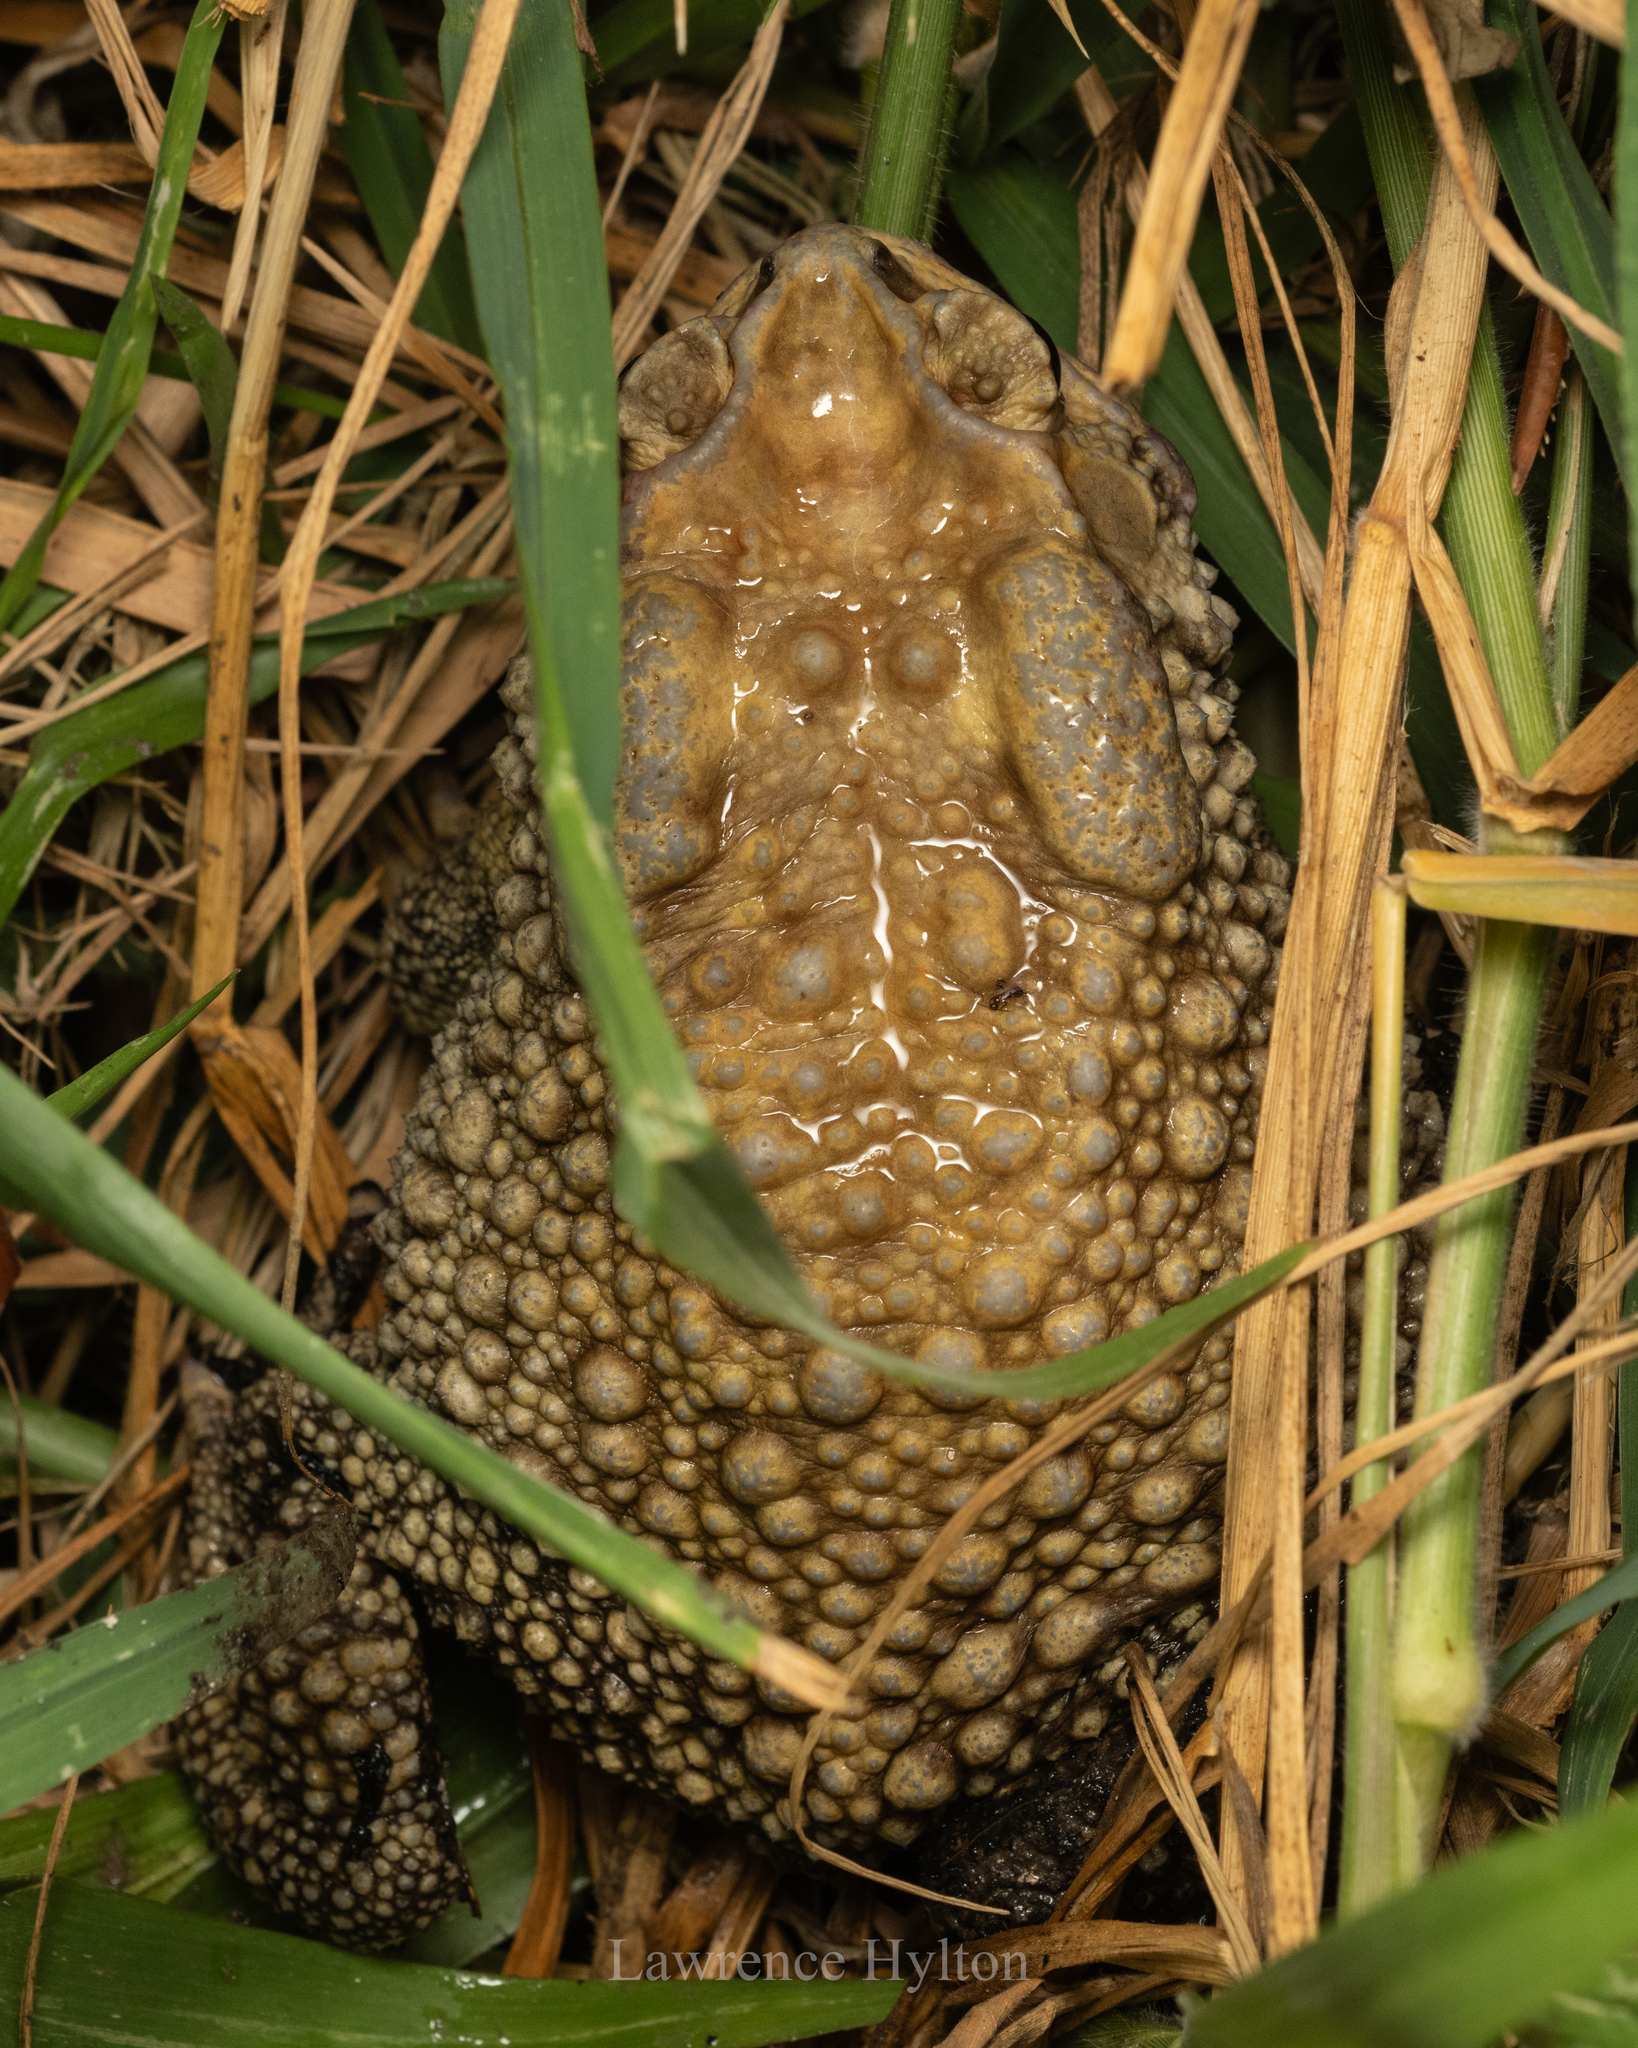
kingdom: Animalia
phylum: Chordata
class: Amphibia
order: Anura
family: Bufonidae
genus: Duttaphrynus
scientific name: Duttaphrynus melanostictus
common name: Common sunda toad
